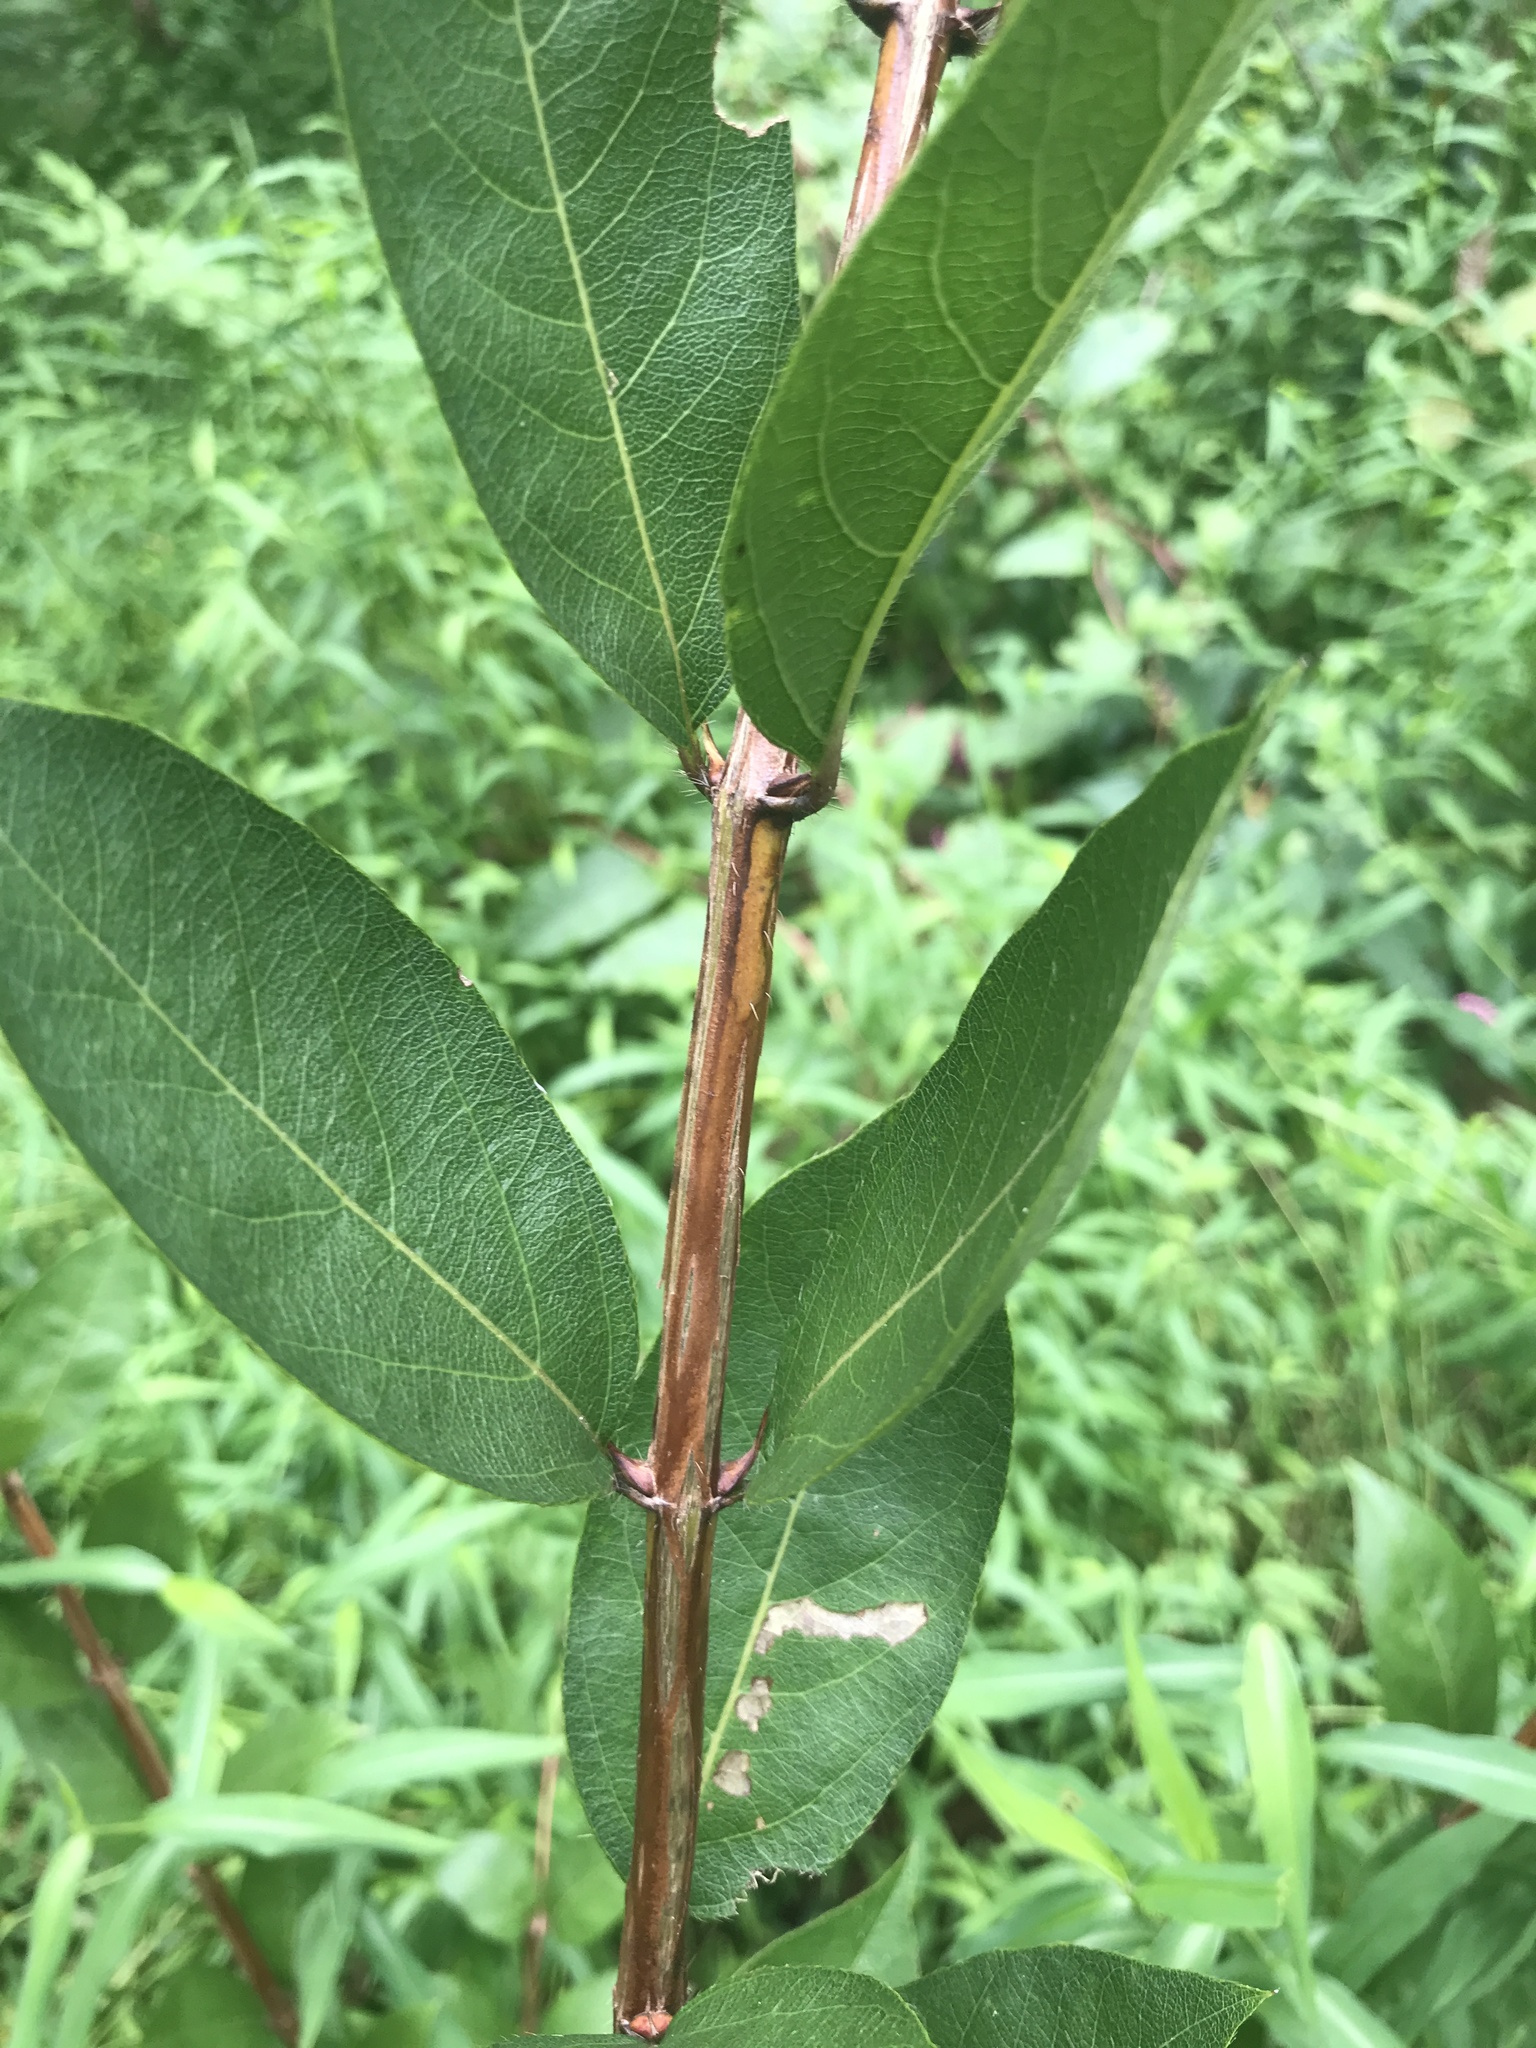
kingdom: Plantae
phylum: Tracheophyta
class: Magnoliopsida
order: Dipsacales
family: Caprifoliaceae
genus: Lonicera
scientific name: Lonicera fragrantissima
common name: Fragrant honeysuckle
